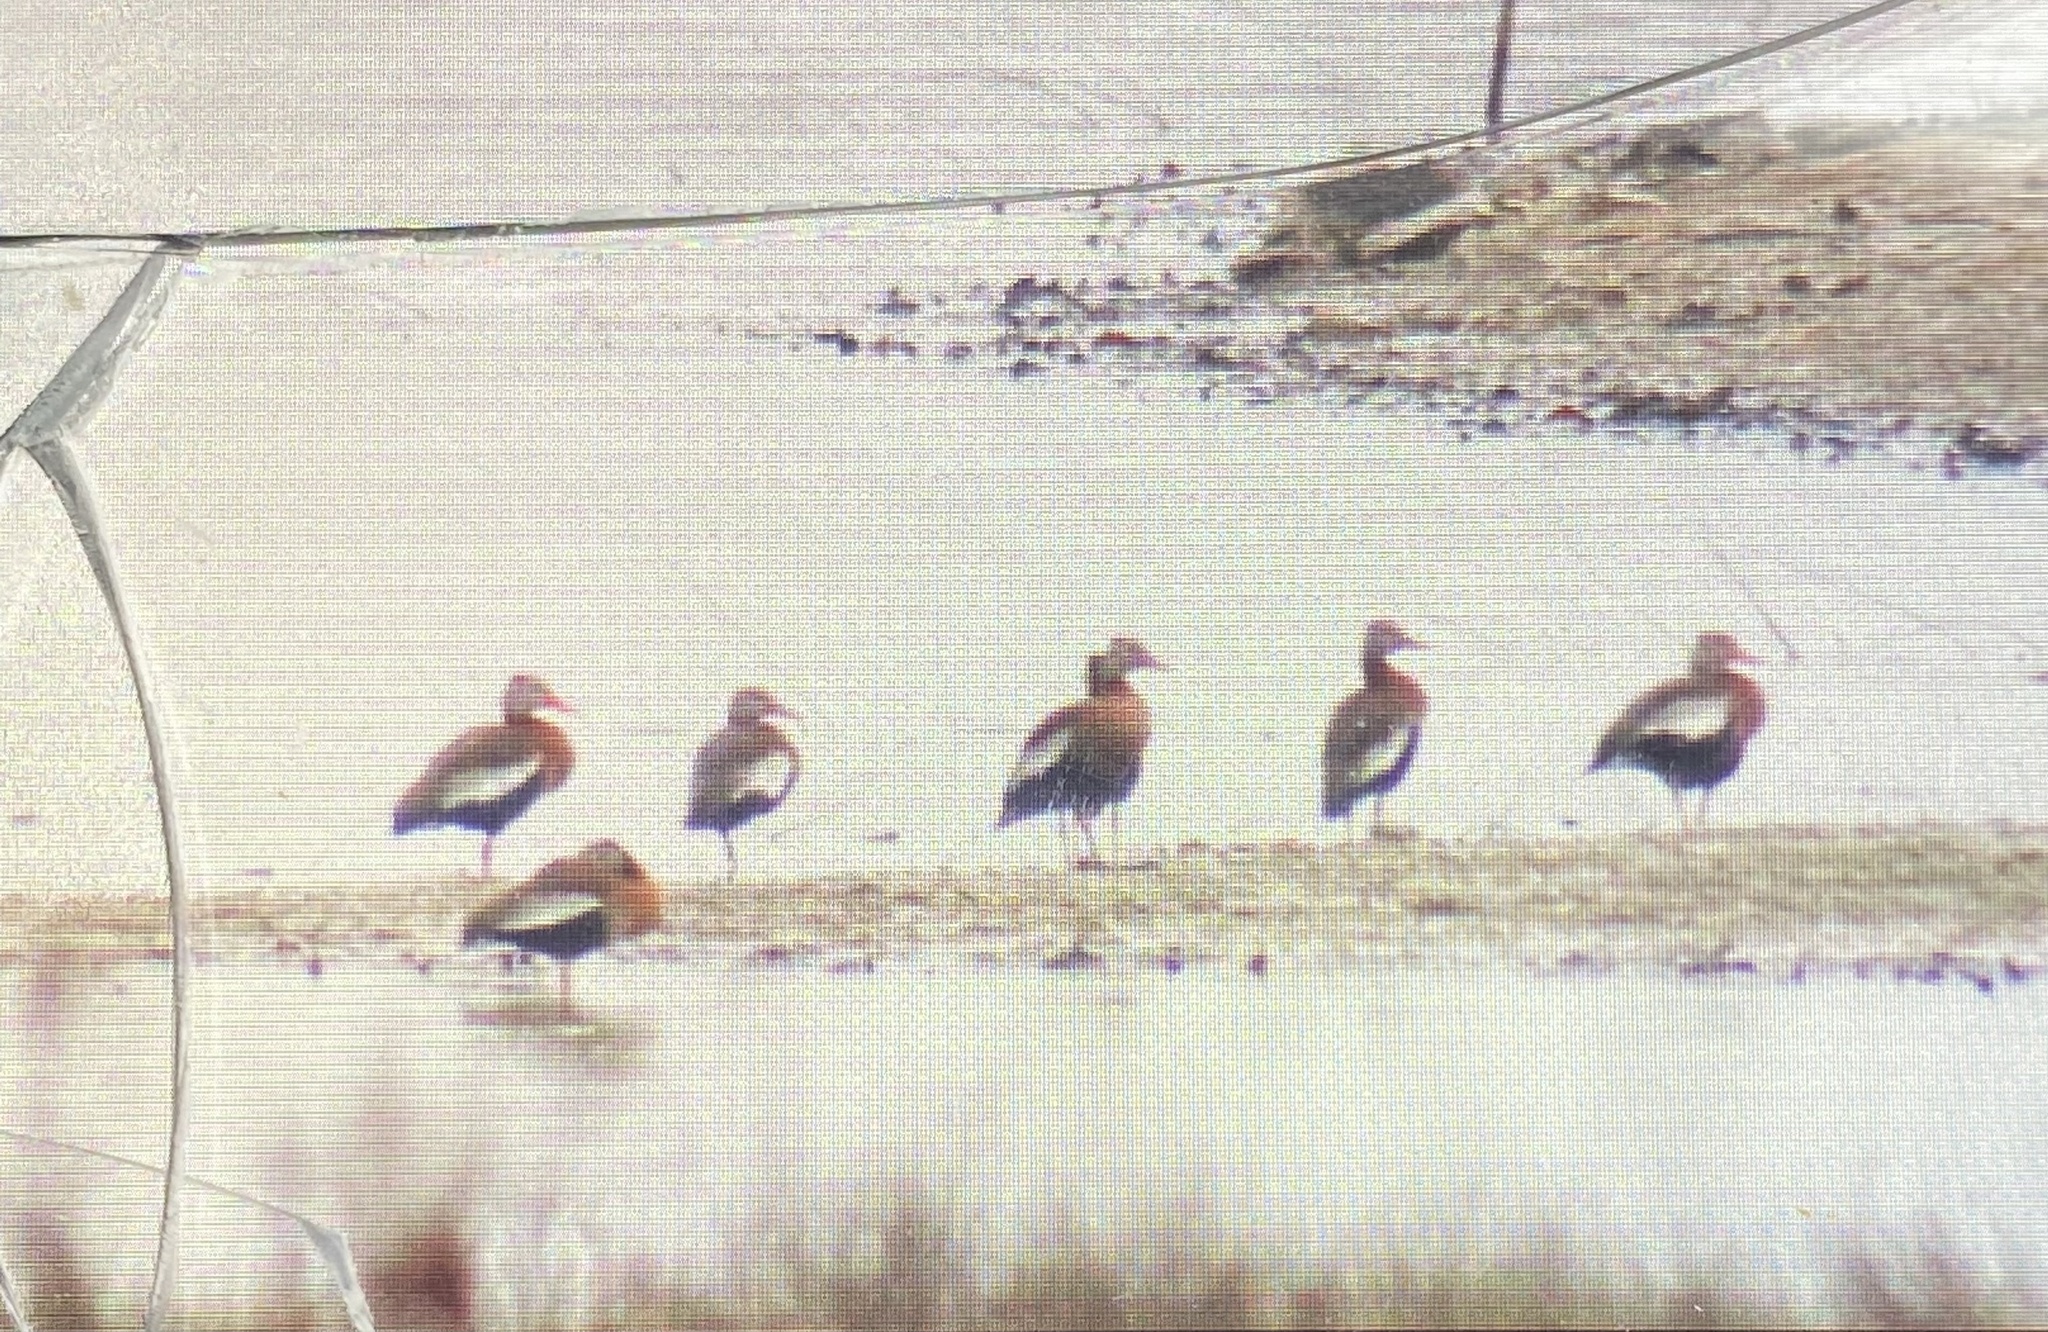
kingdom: Animalia
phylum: Chordata
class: Aves
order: Anseriformes
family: Anatidae
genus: Dendrocygna
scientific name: Dendrocygna autumnalis
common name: Black-bellied whistling duck
